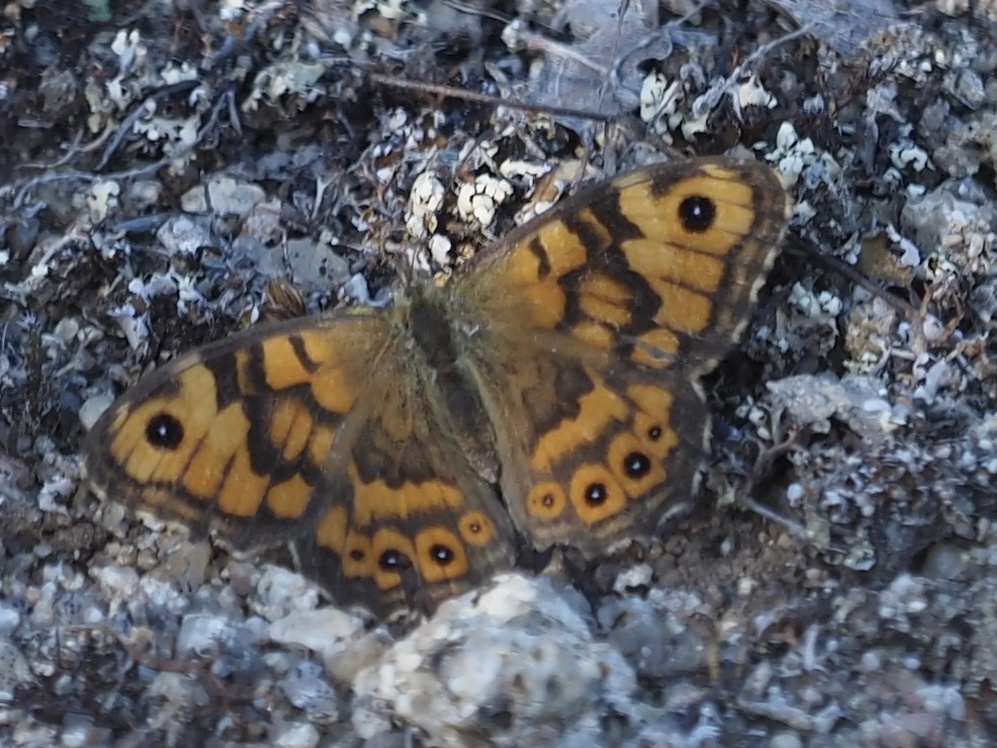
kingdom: Animalia
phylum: Arthropoda
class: Insecta
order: Lepidoptera
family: Nymphalidae
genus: Pararge
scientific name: Pararge Lasiommata megera
